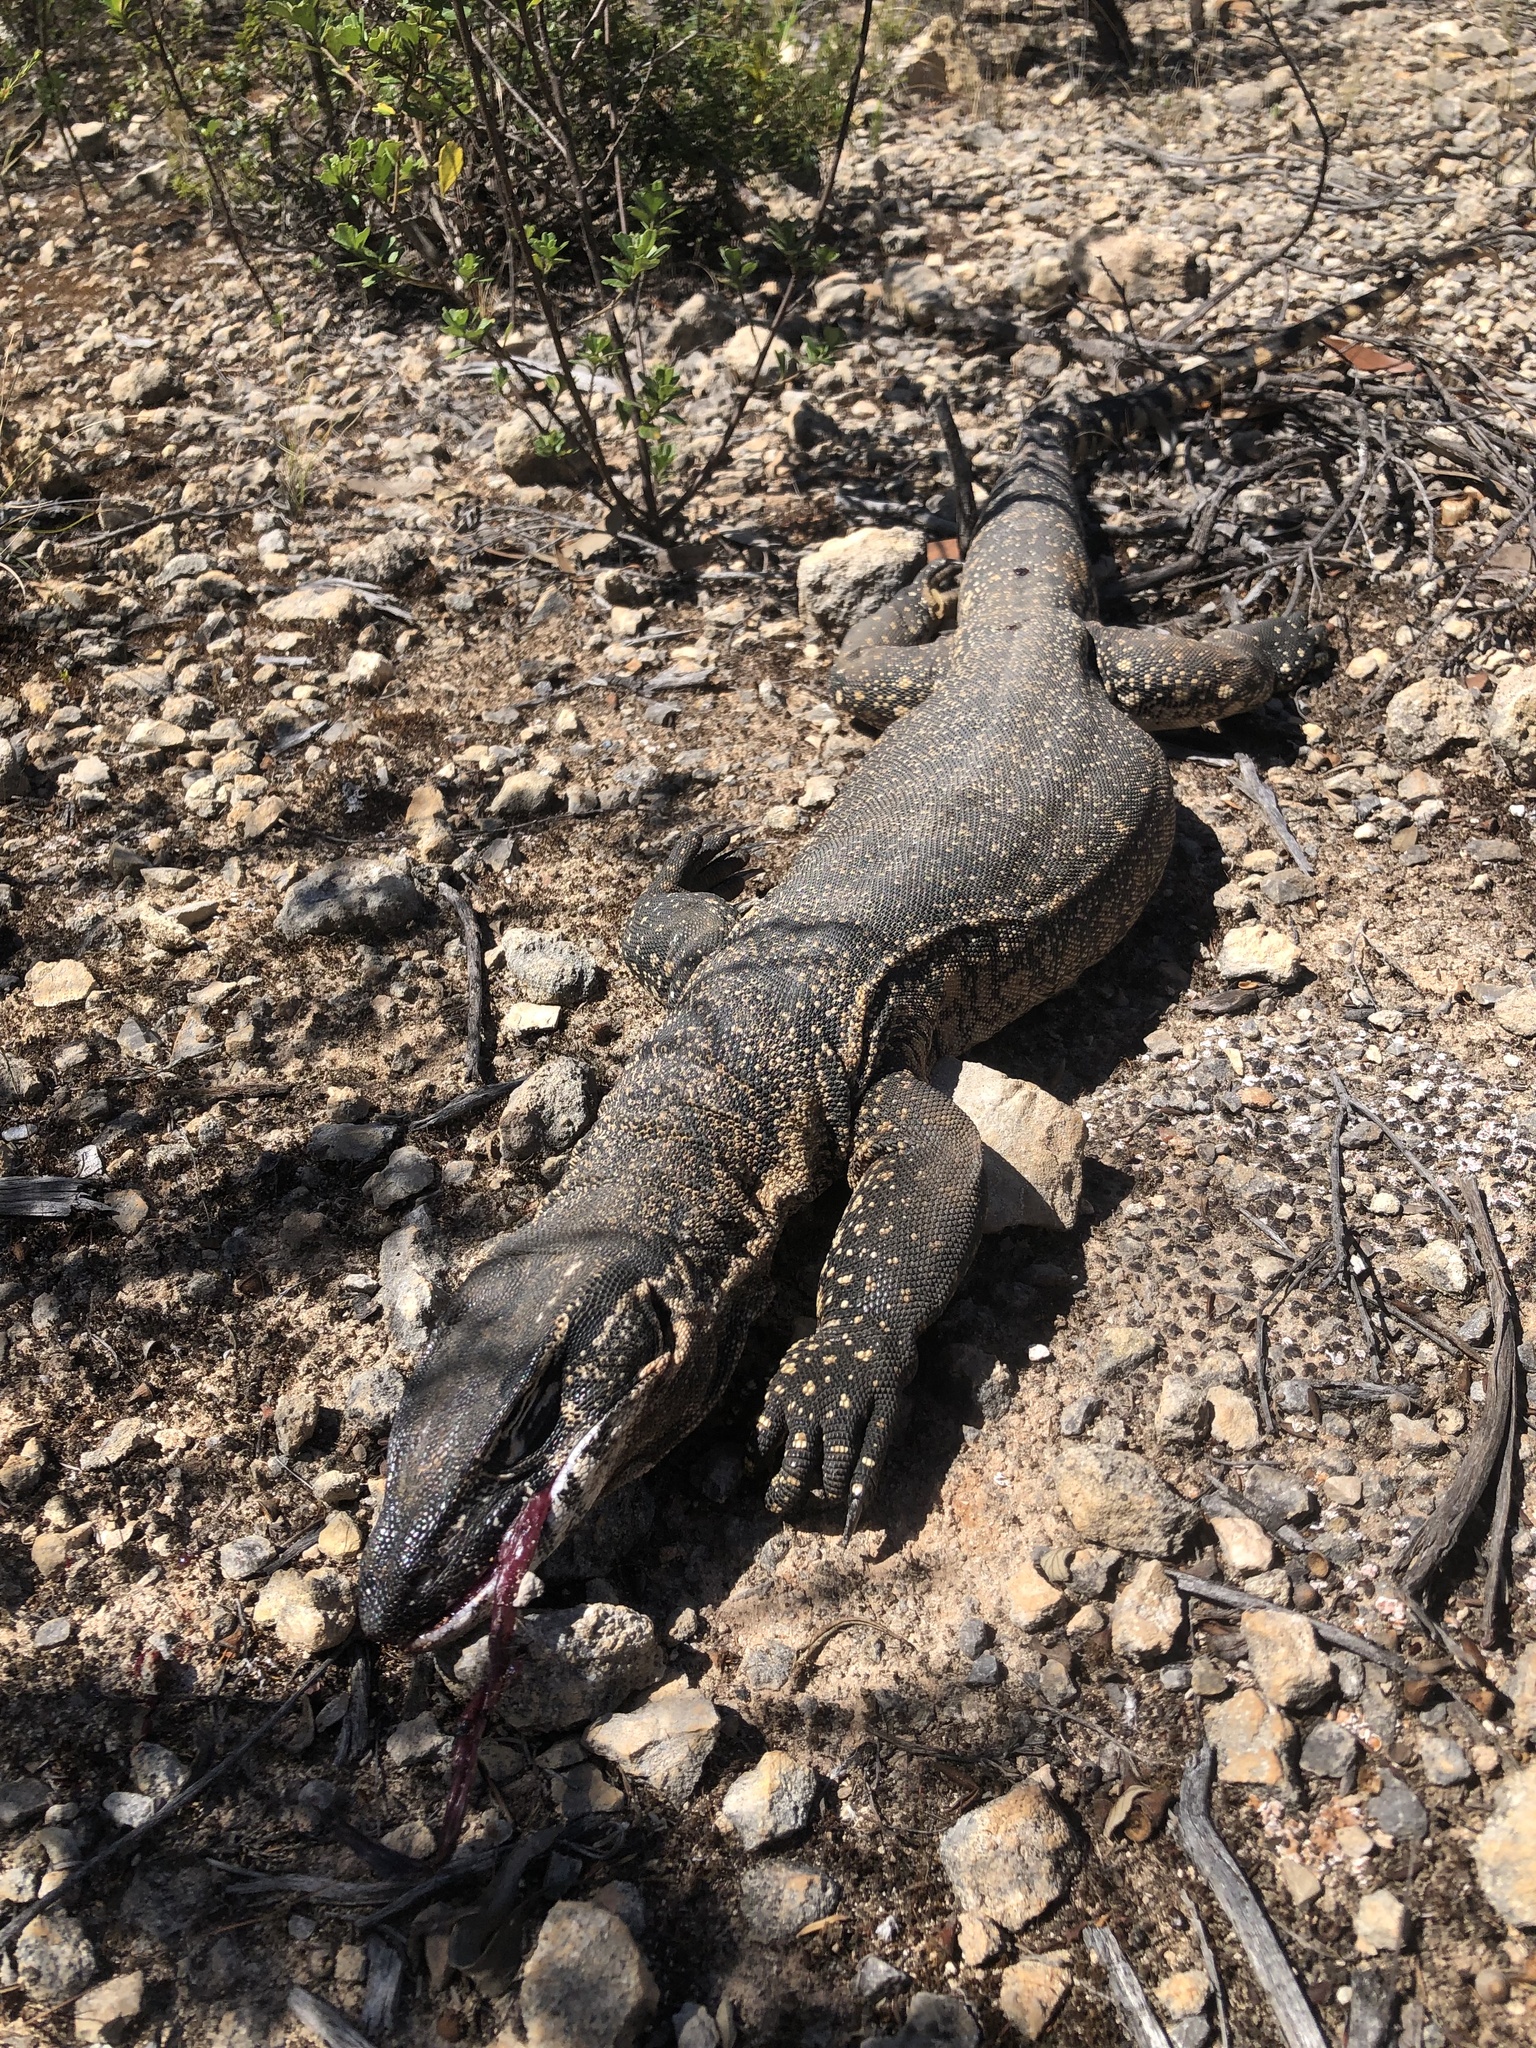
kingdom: Animalia
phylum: Chordata
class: Squamata
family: Varanidae
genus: Varanus
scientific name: Varanus rosenbergi
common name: Heath monitor
